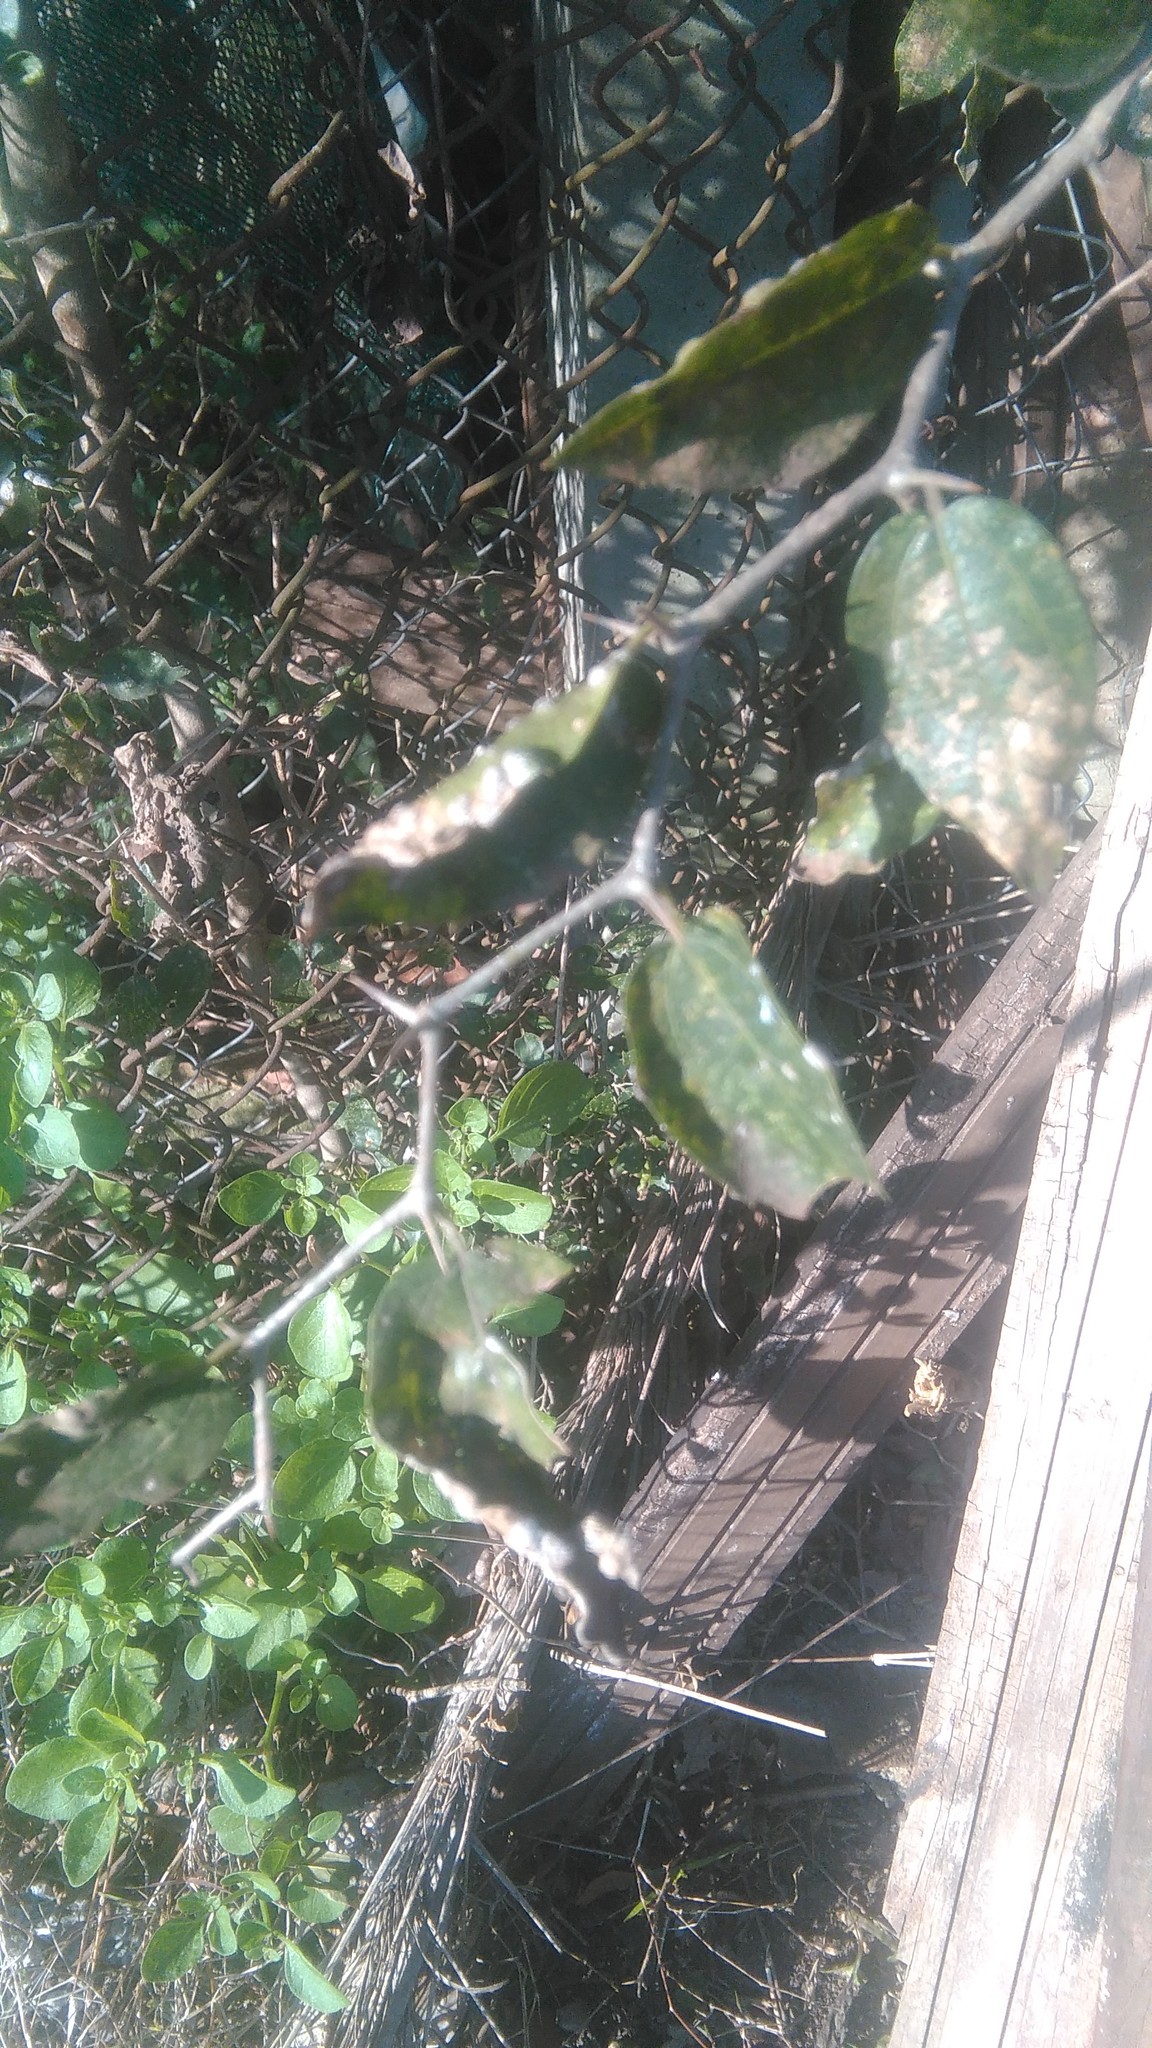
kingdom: Plantae
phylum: Tracheophyta
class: Magnoliopsida
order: Rosales
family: Cannabaceae
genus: Celtis
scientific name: Celtis tala
